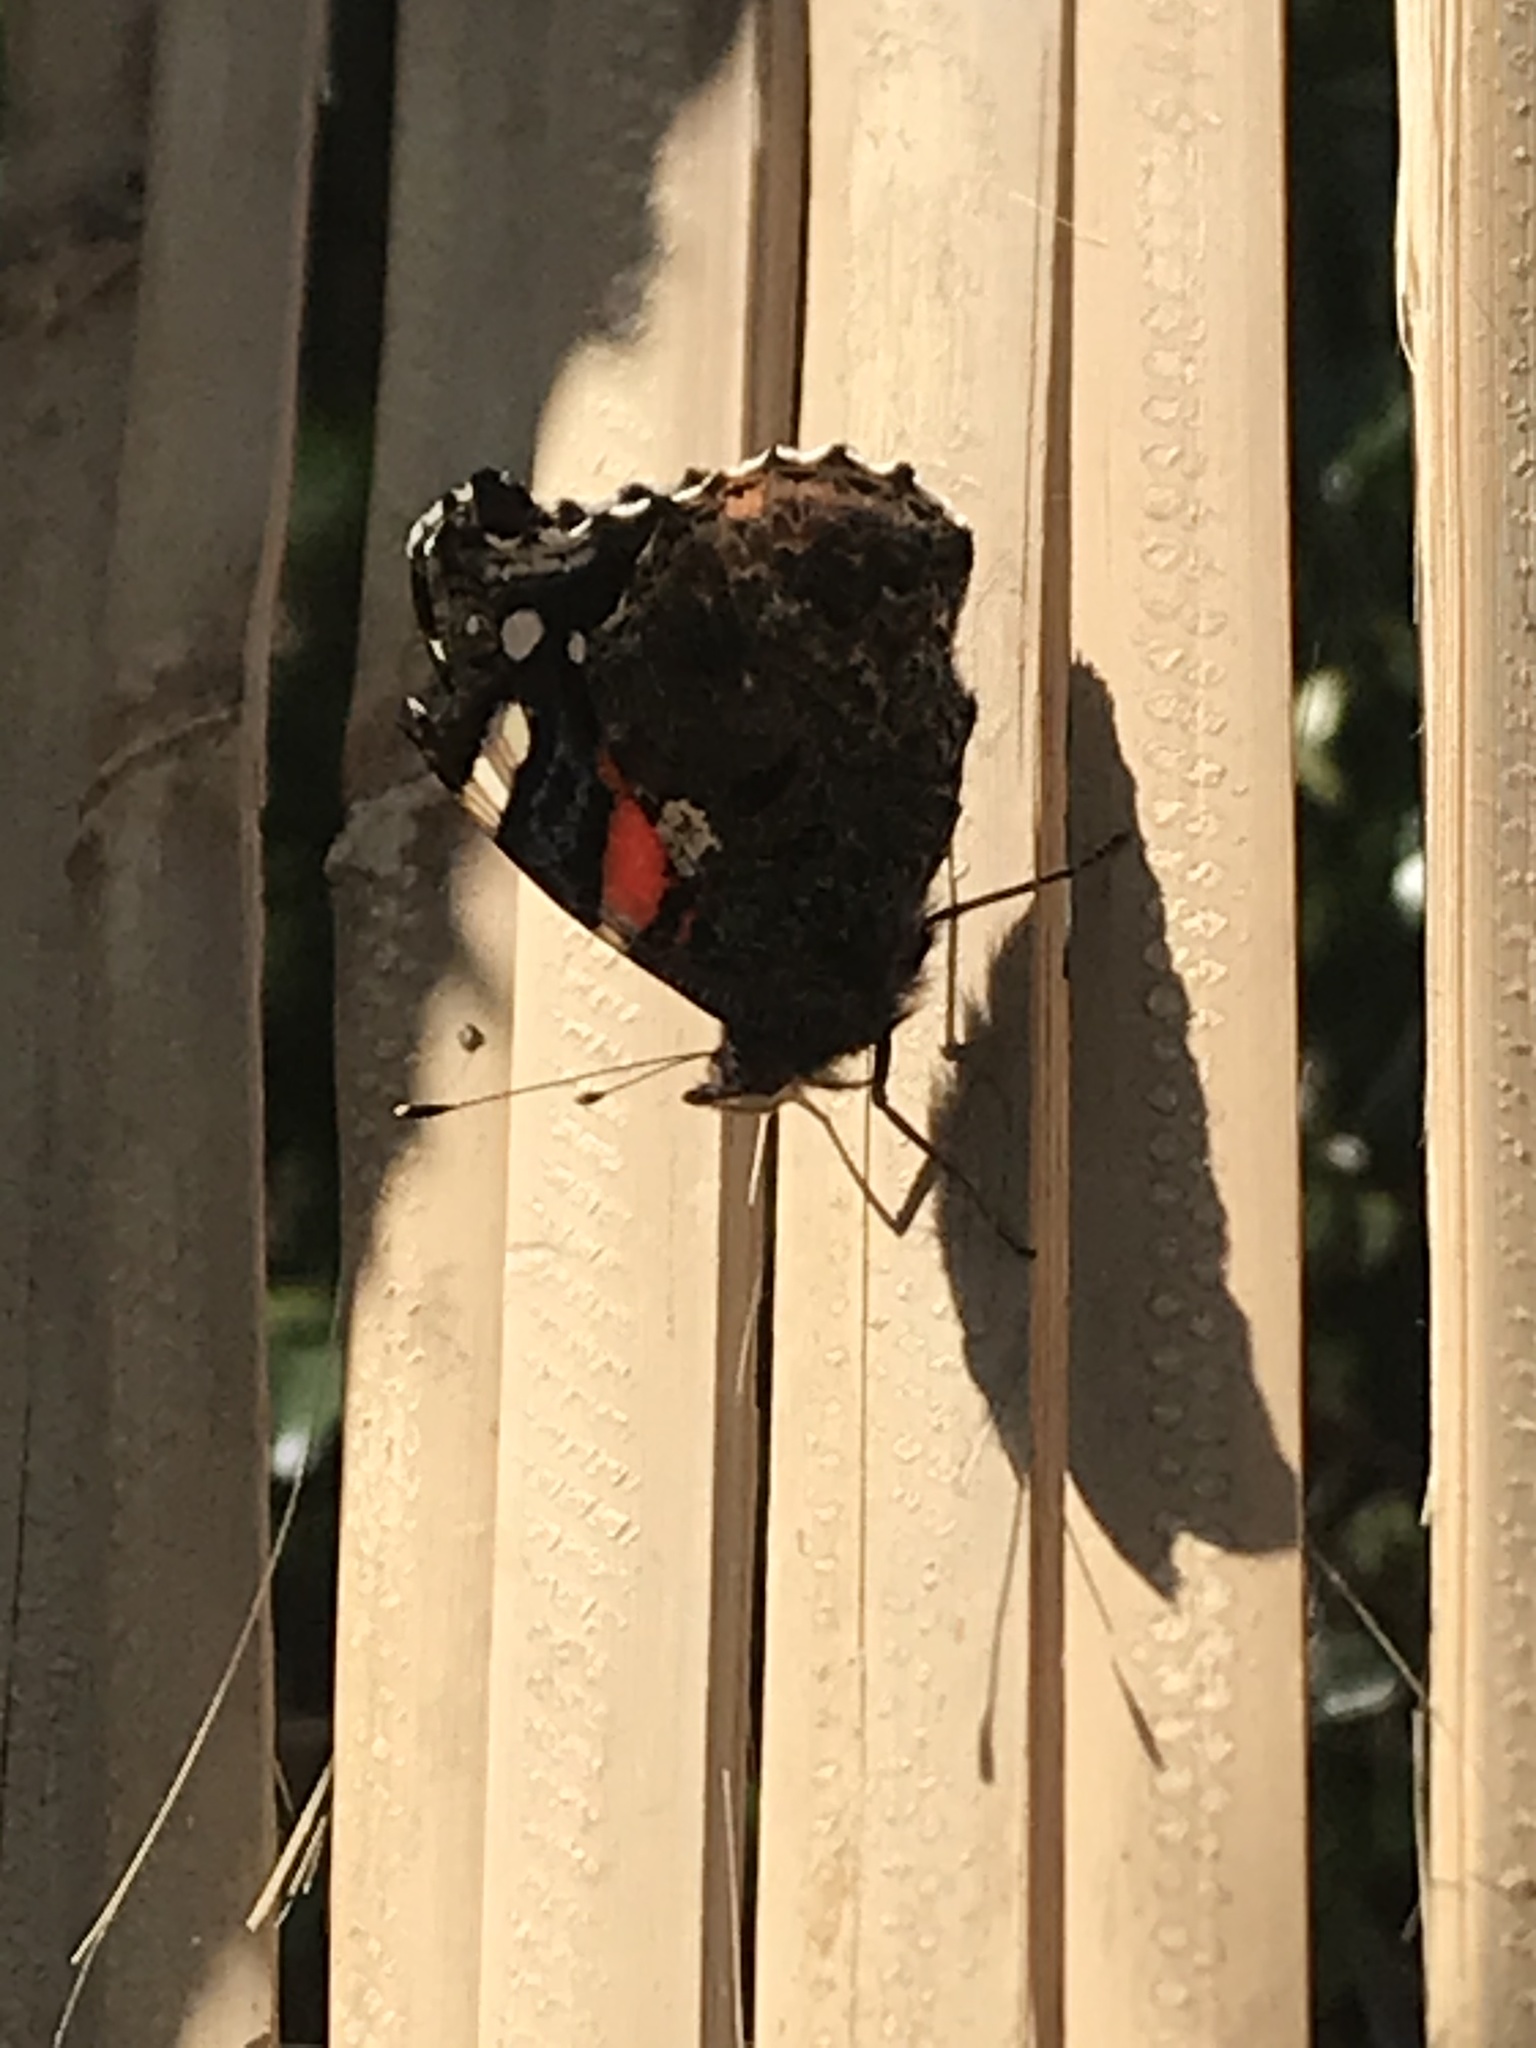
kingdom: Animalia
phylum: Arthropoda
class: Insecta
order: Lepidoptera
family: Nymphalidae
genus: Vanessa
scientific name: Vanessa atalanta
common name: Red admiral
